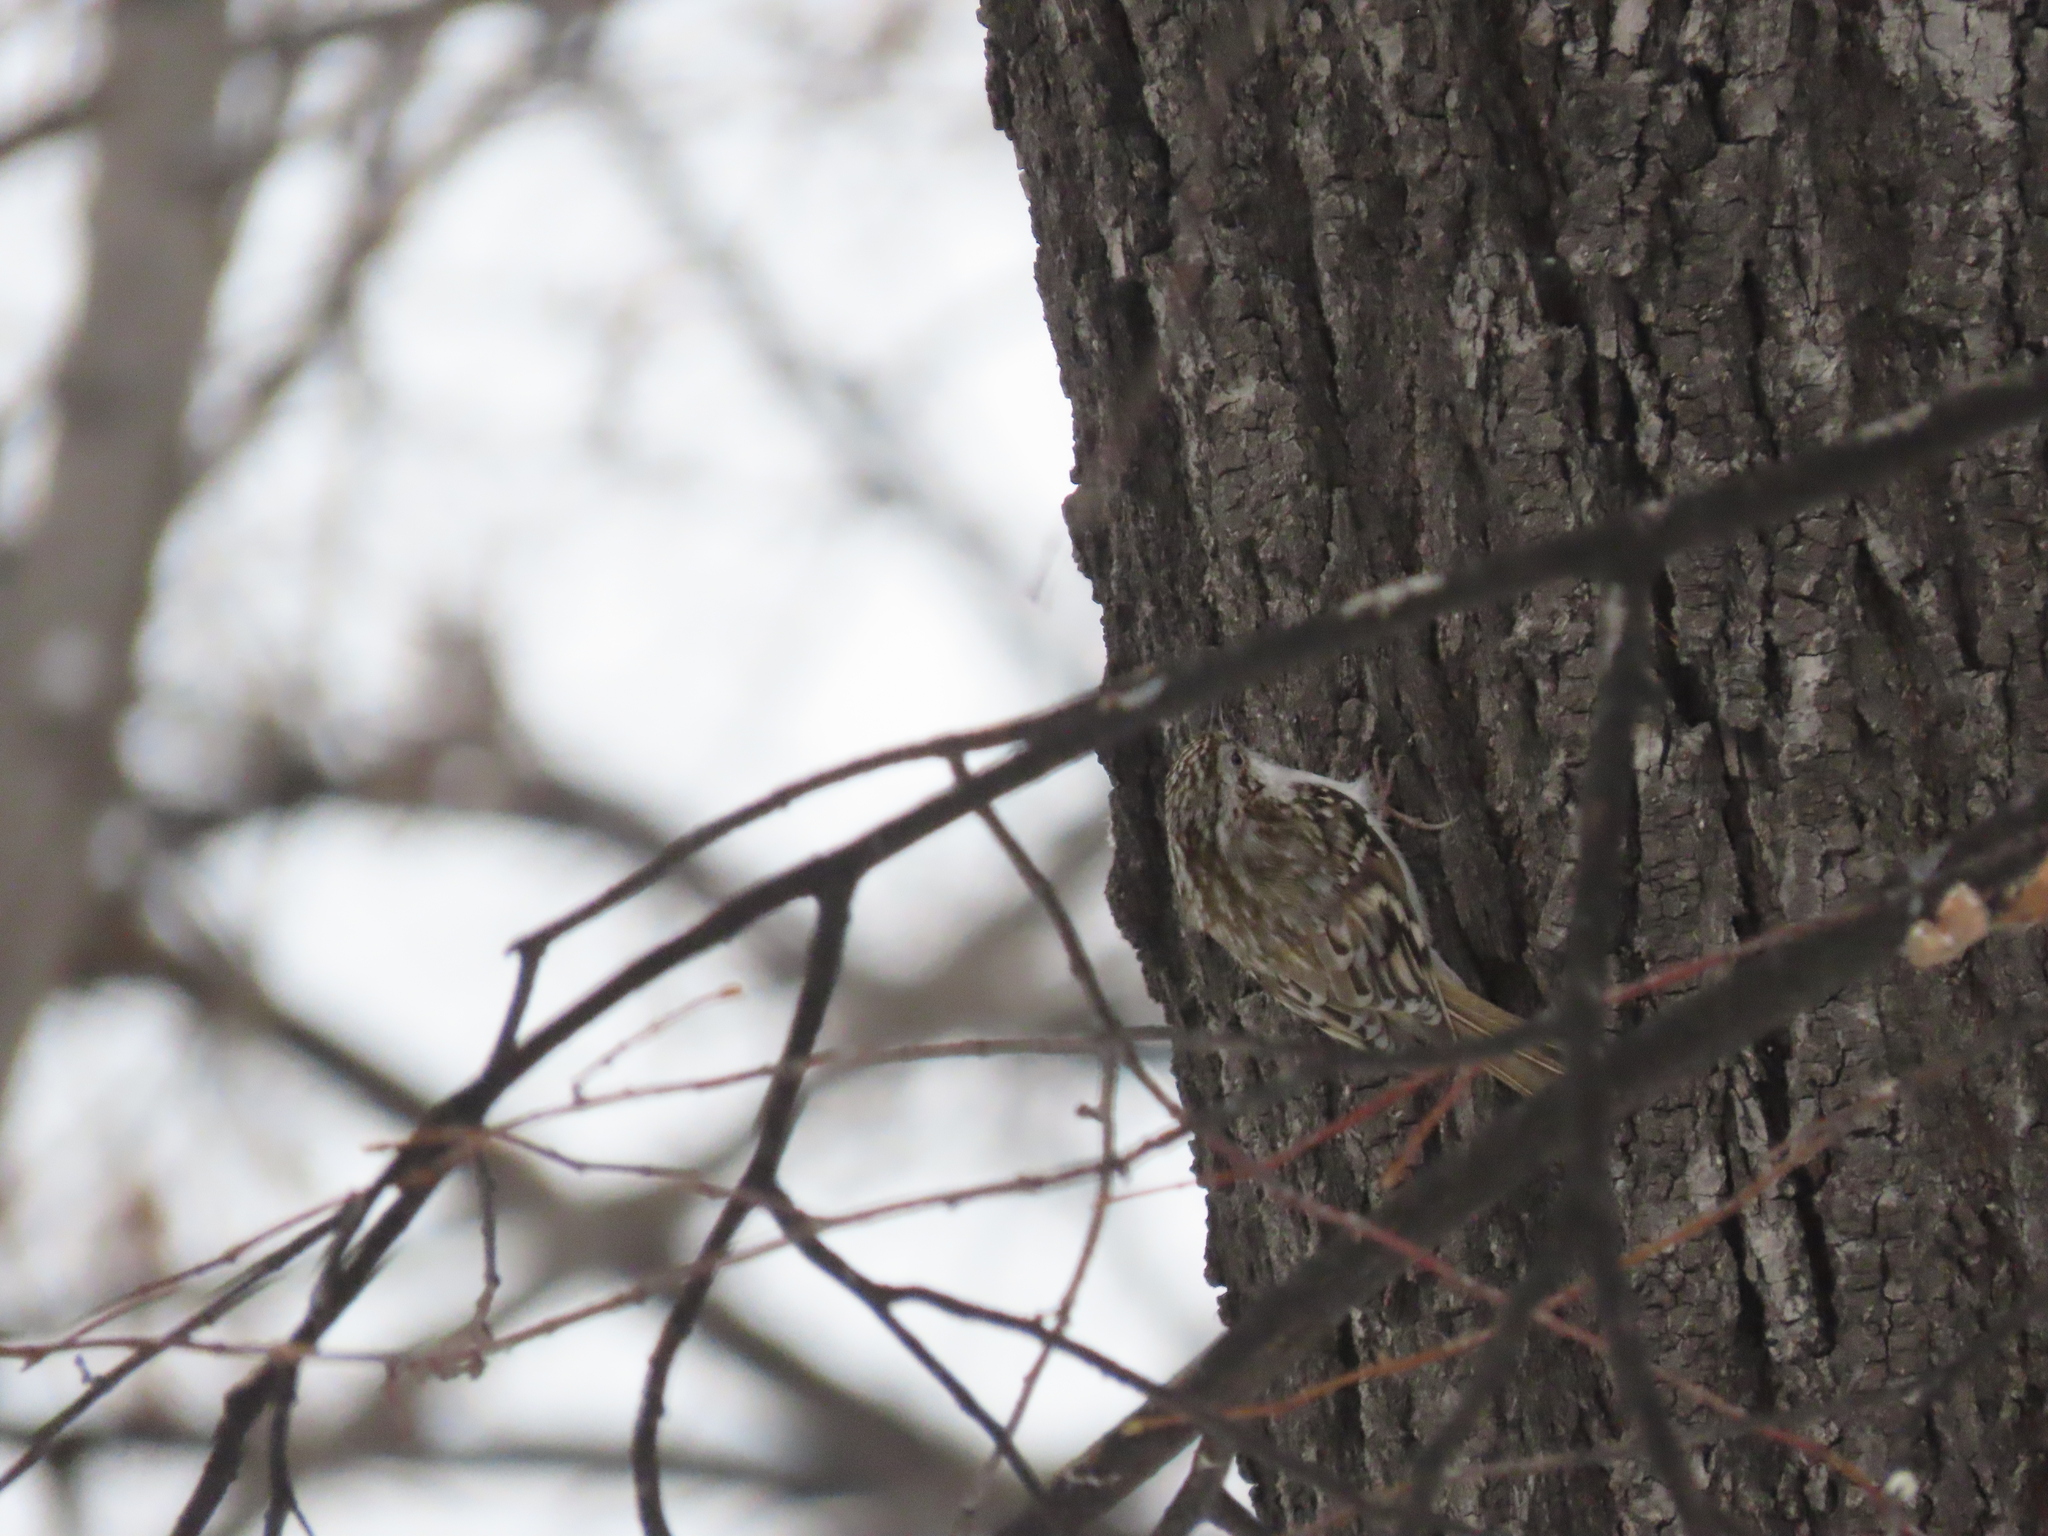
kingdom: Animalia
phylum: Chordata
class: Aves
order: Passeriformes
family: Certhiidae
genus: Certhia
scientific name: Certhia familiaris
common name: Eurasian treecreeper
